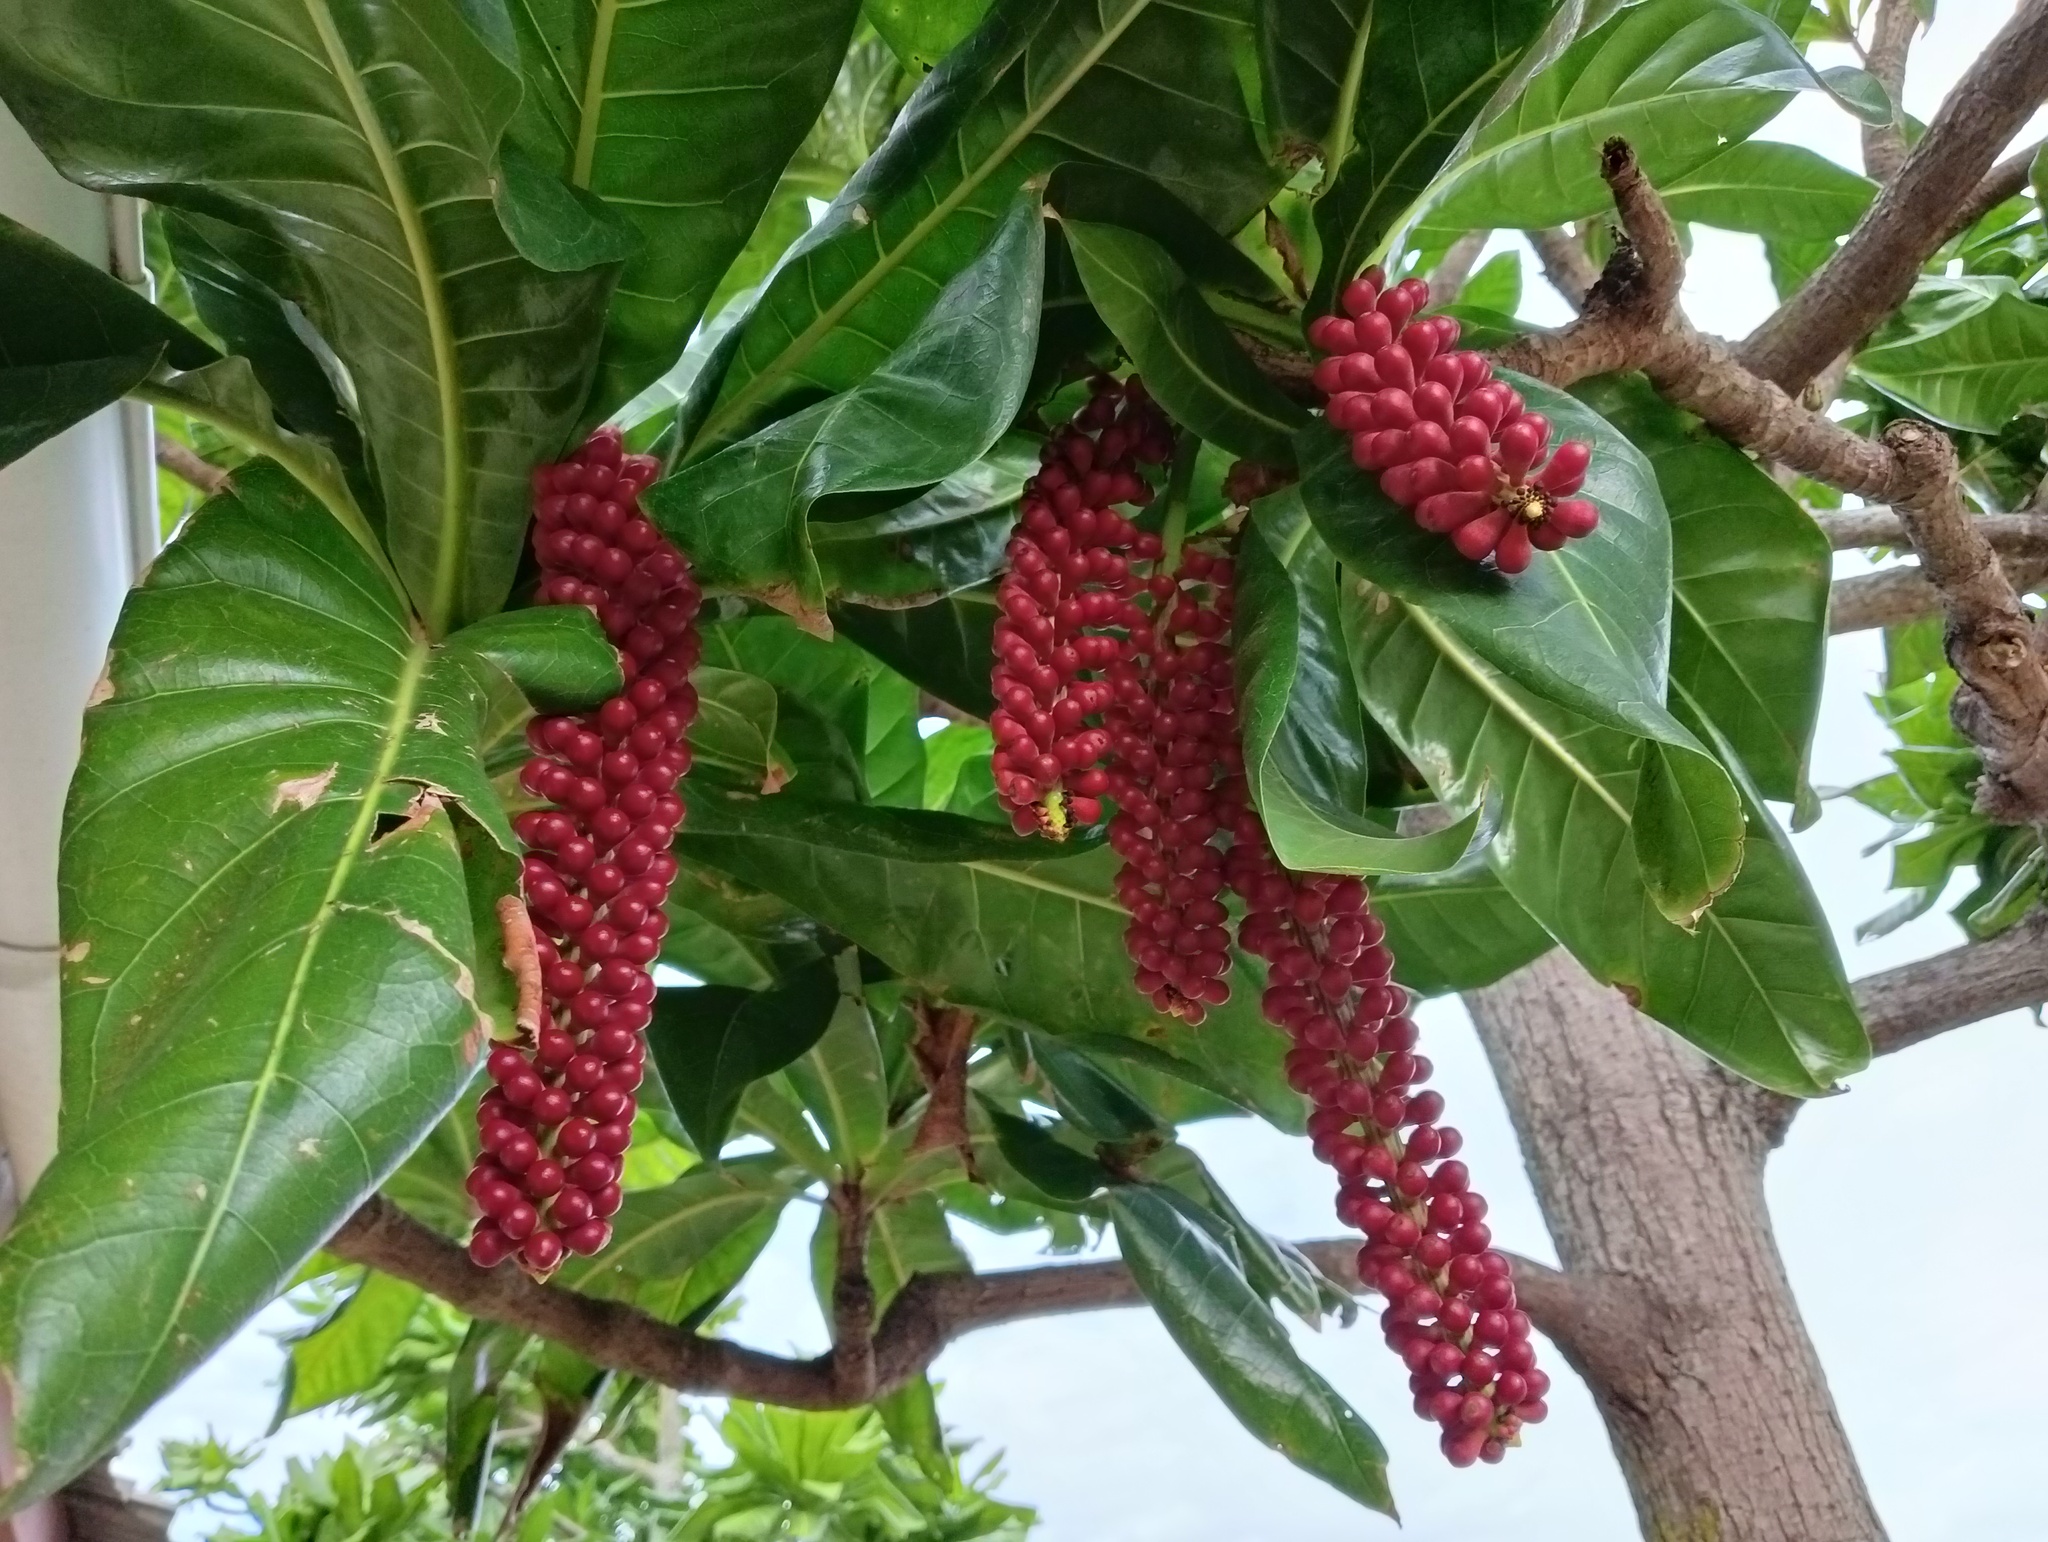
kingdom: Plantae
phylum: Tracheophyta
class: Magnoliopsida
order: Ericales
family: Lecythidaceae
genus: Barringtonia
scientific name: Barringtonia edulis
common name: Cutnut
